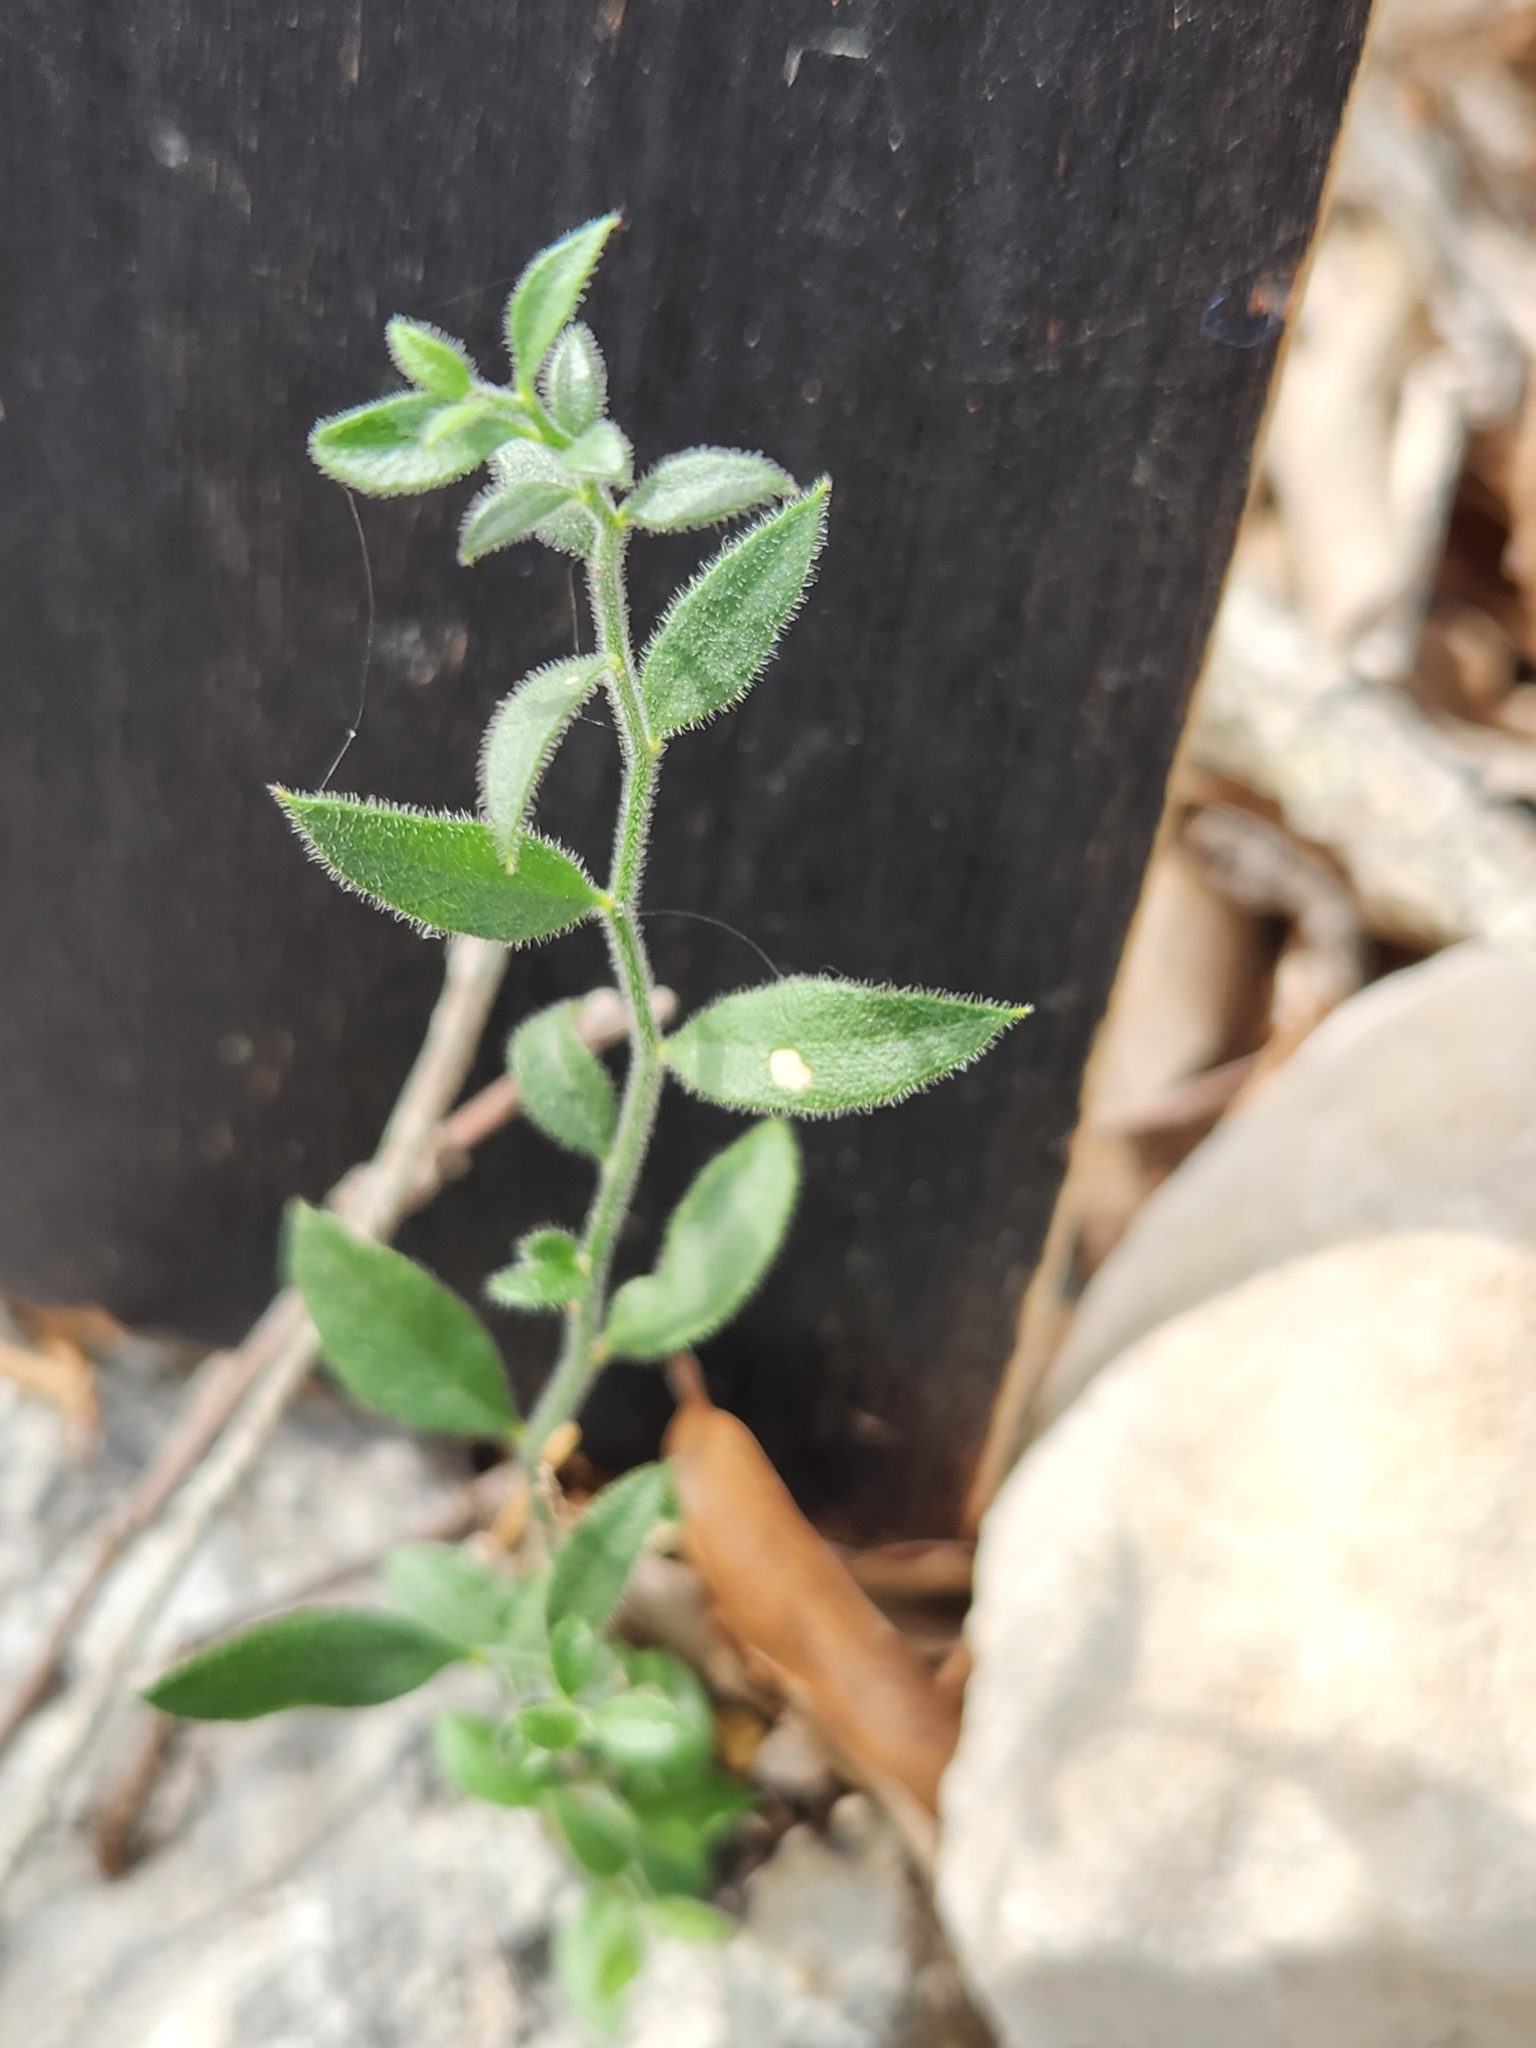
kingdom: Plantae
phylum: Tracheophyta
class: Magnoliopsida
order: Fabales
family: Polygalaceae
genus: Rhinotropis
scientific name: Rhinotropis lindheimeri
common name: Shrubby milkwort
